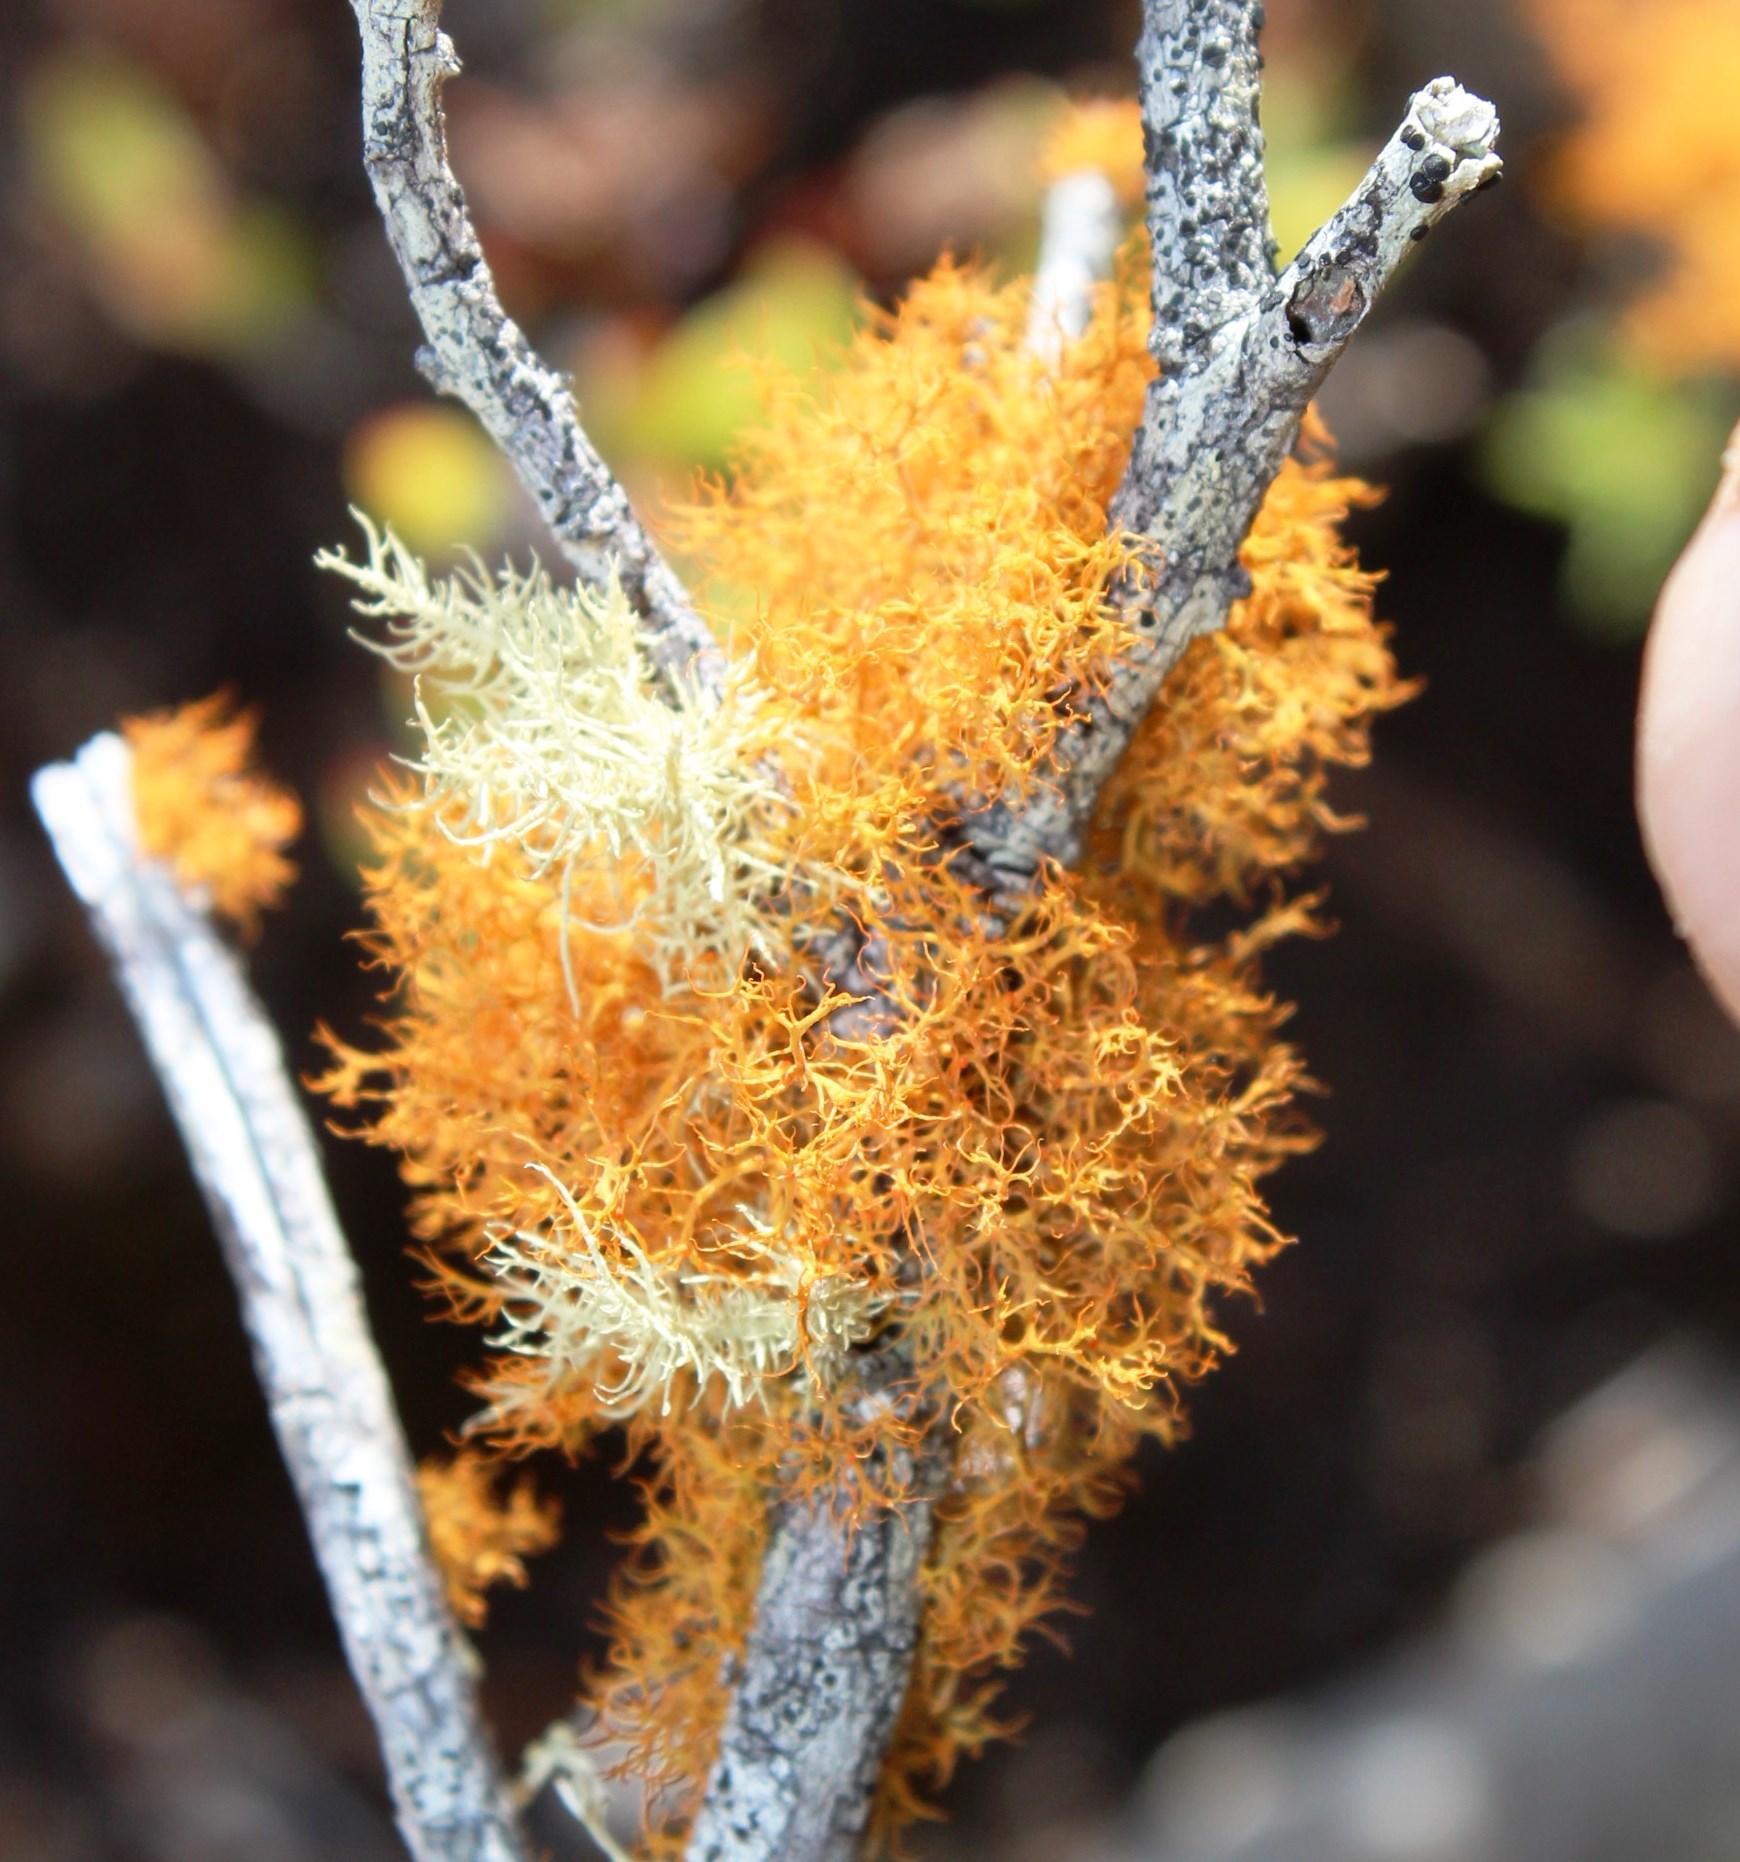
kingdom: Fungi
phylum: Ascomycota
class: Lecanoromycetes
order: Teloschistales
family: Teloschistaceae
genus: Teloschistes
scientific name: Teloschistes capensis
